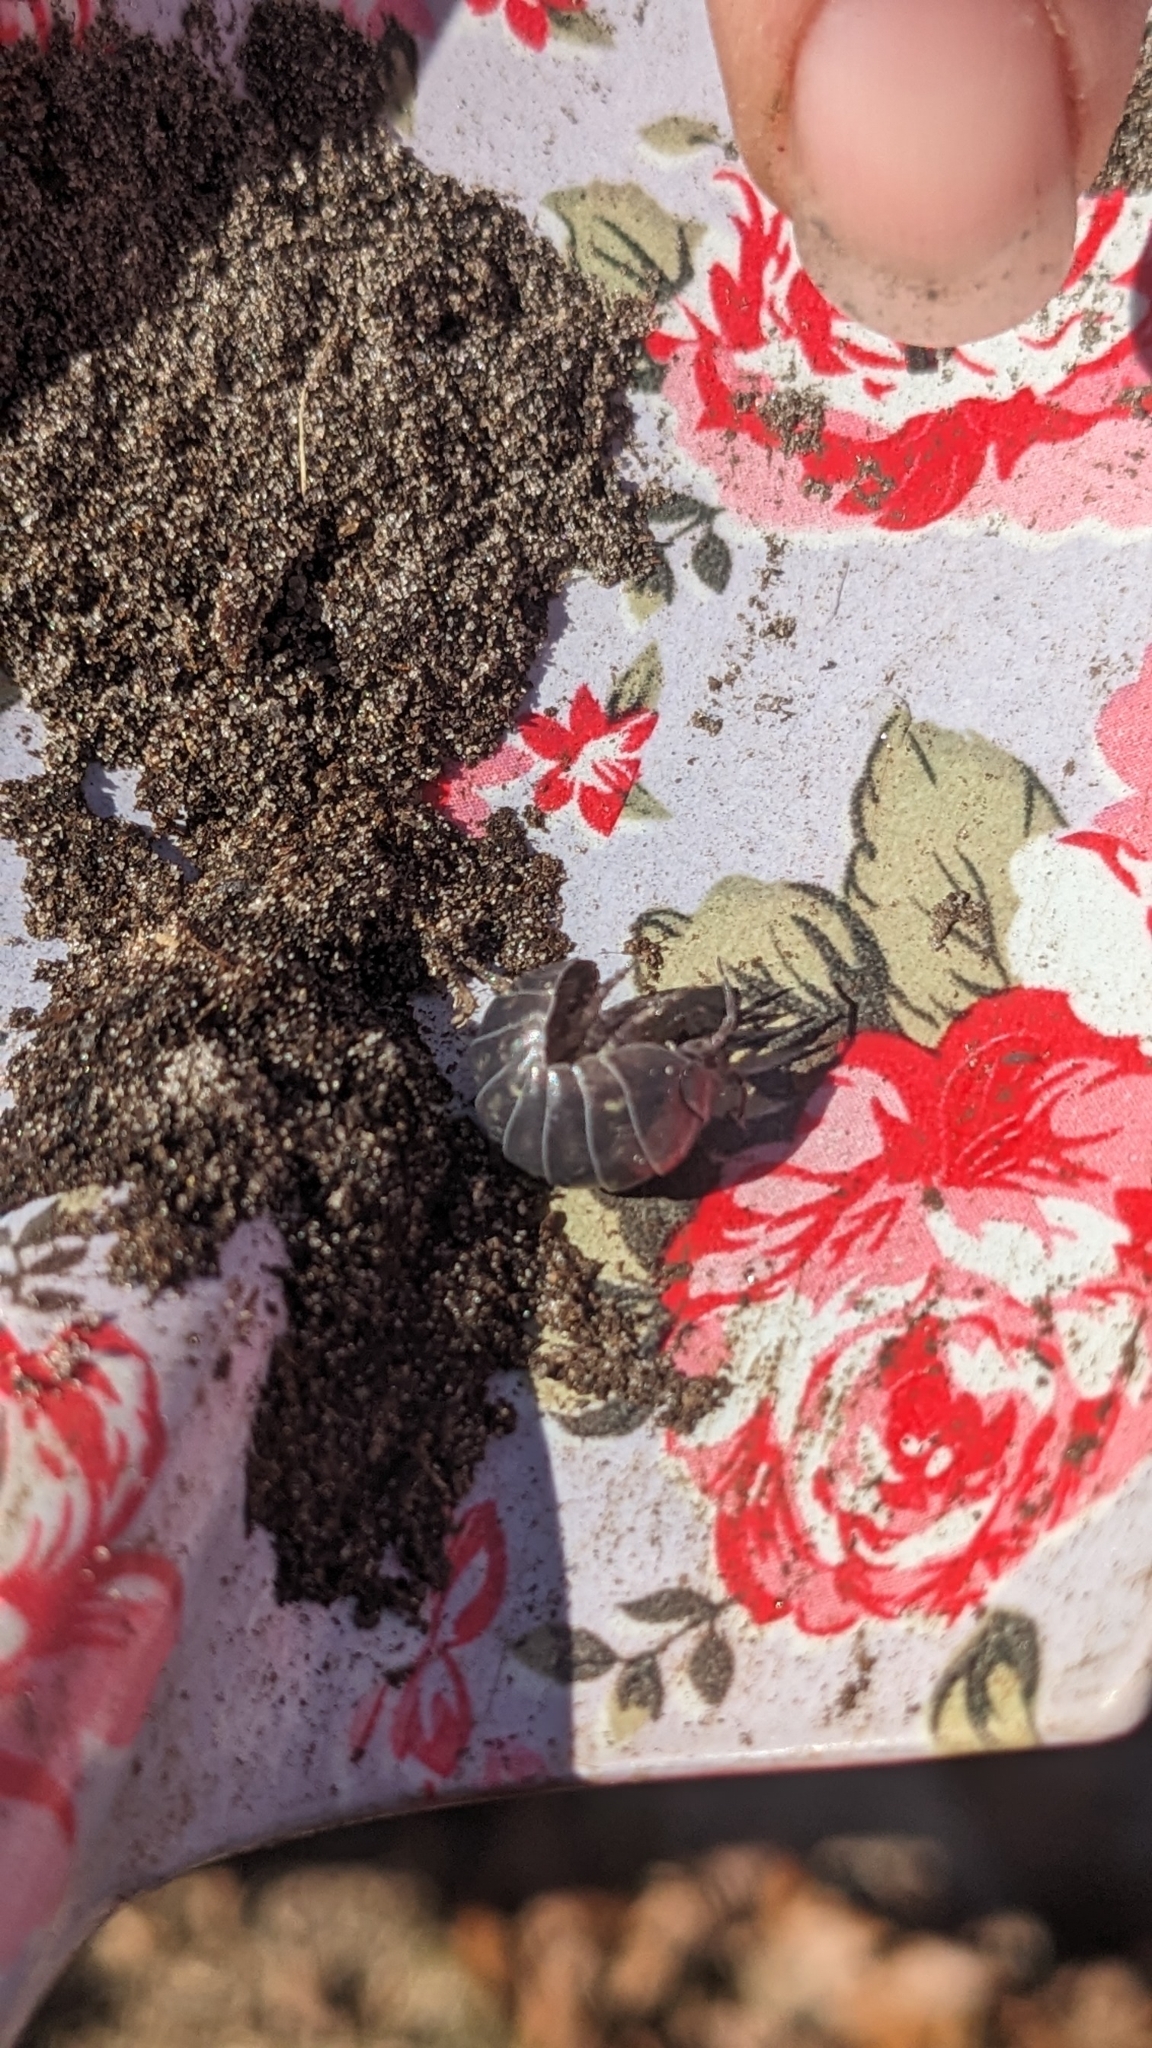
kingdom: Animalia
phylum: Arthropoda
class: Malacostraca
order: Isopoda
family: Armadillidiidae
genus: Armadillidium
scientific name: Armadillidium vulgare
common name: Common pill woodlouse
